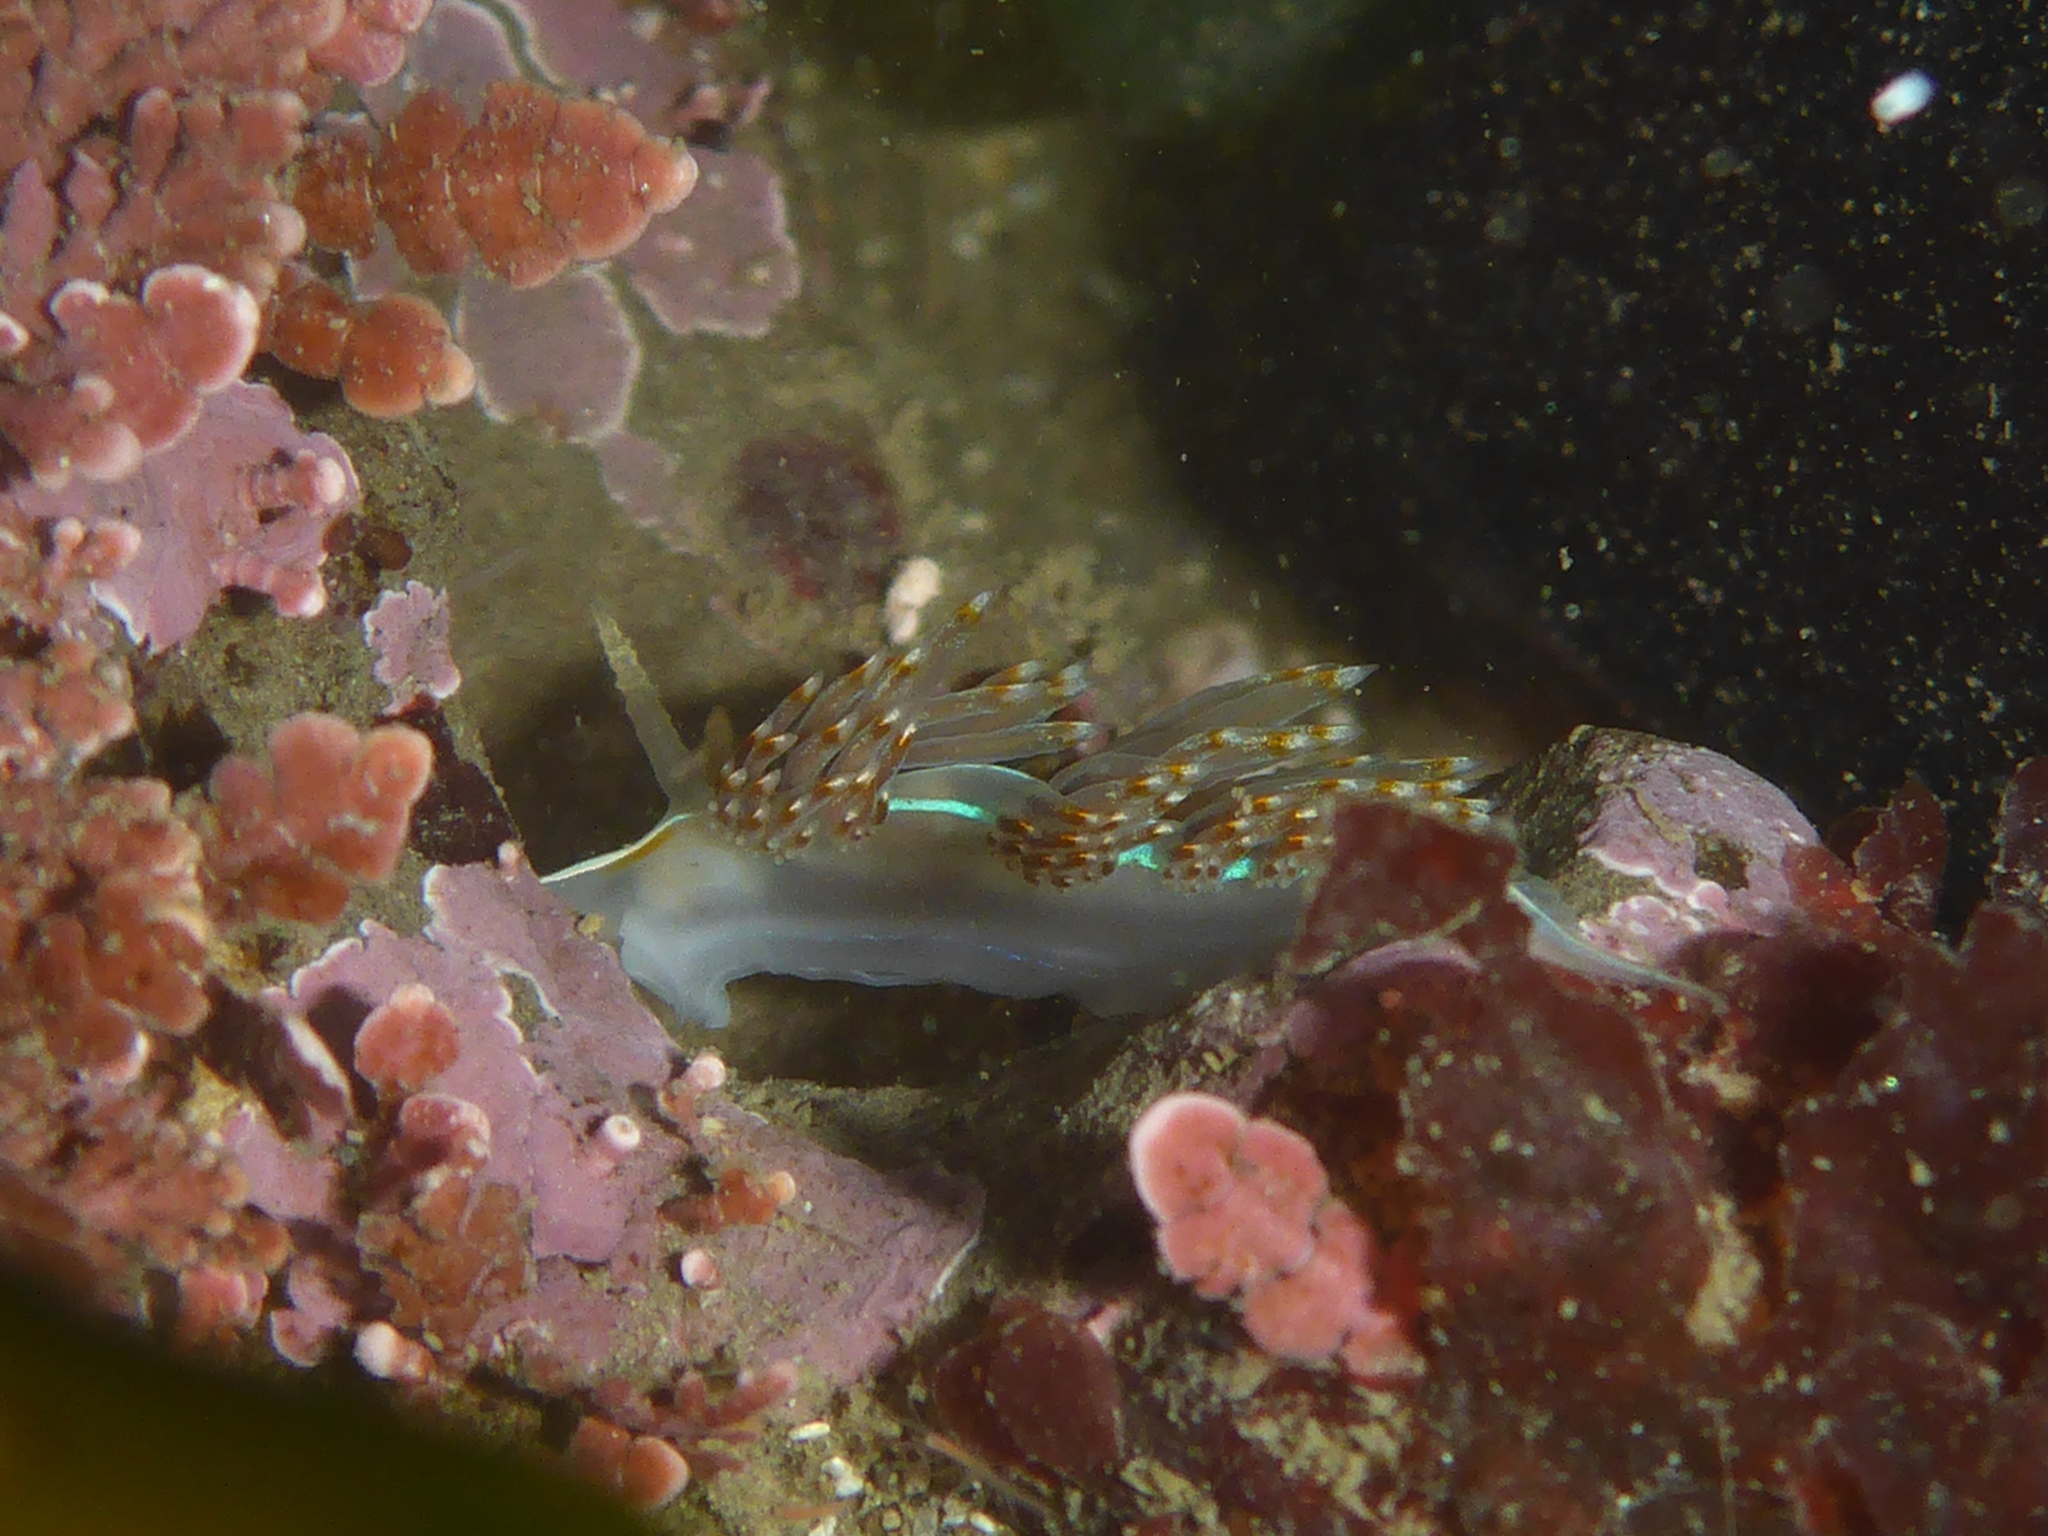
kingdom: Animalia
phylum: Mollusca
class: Gastropoda
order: Nudibranchia
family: Myrrhinidae
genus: Hermissenda
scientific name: Hermissenda opalescens
